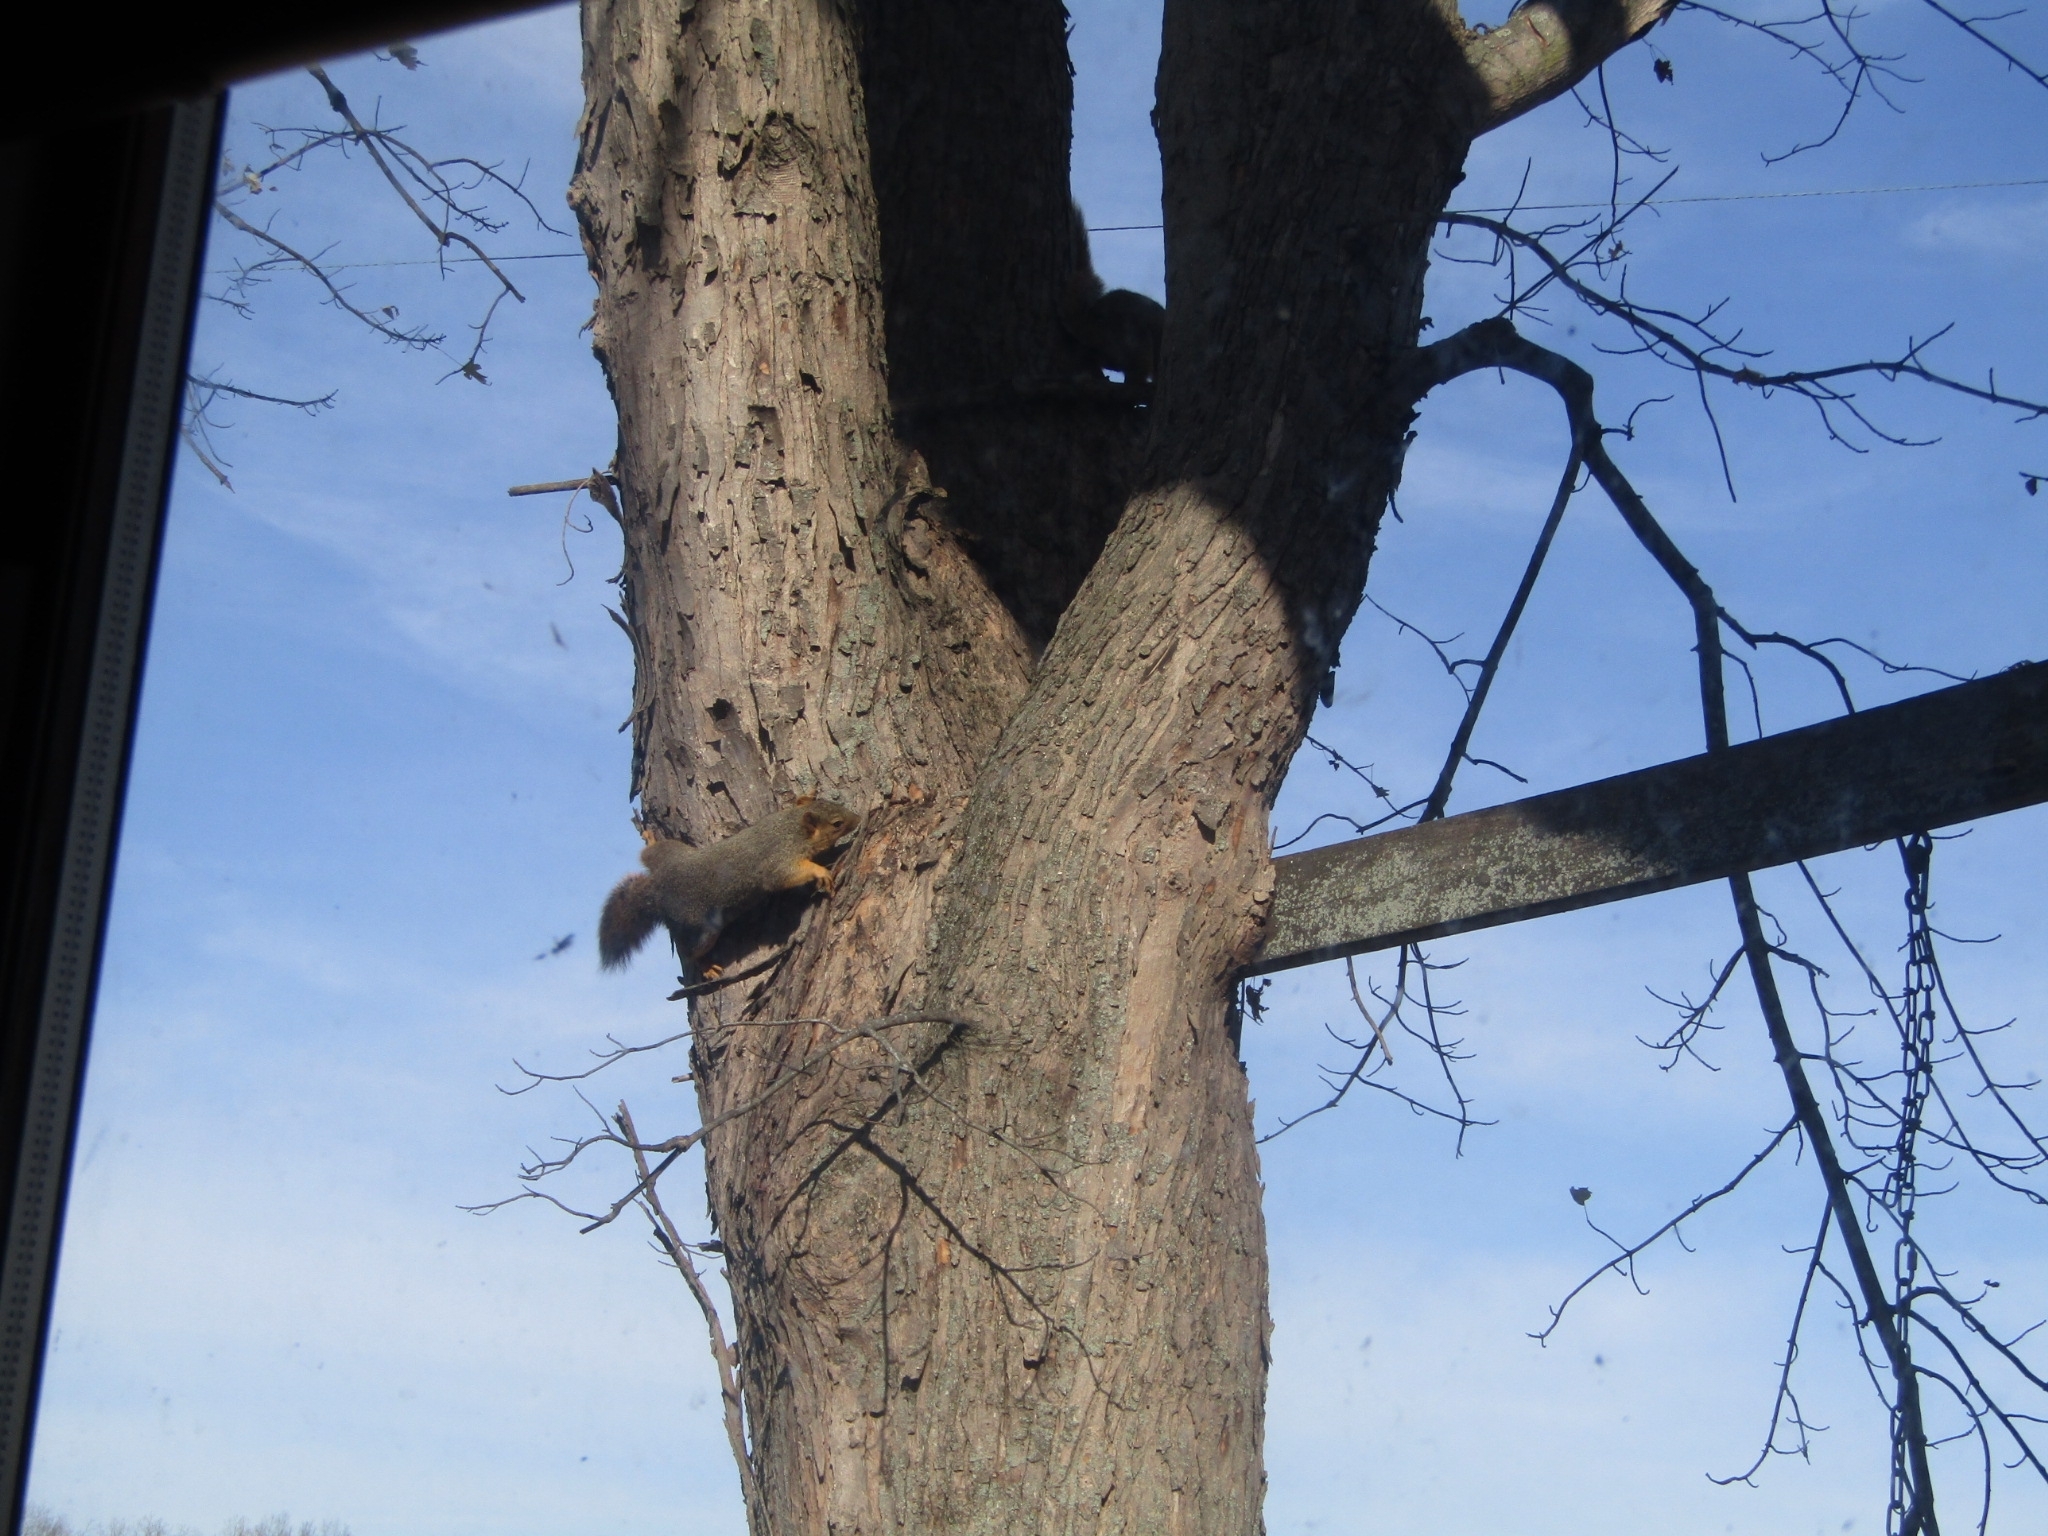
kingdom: Animalia
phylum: Chordata
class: Mammalia
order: Rodentia
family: Sciuridae
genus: Sciurus
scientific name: Sciurus niger
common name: Fox squirrel
